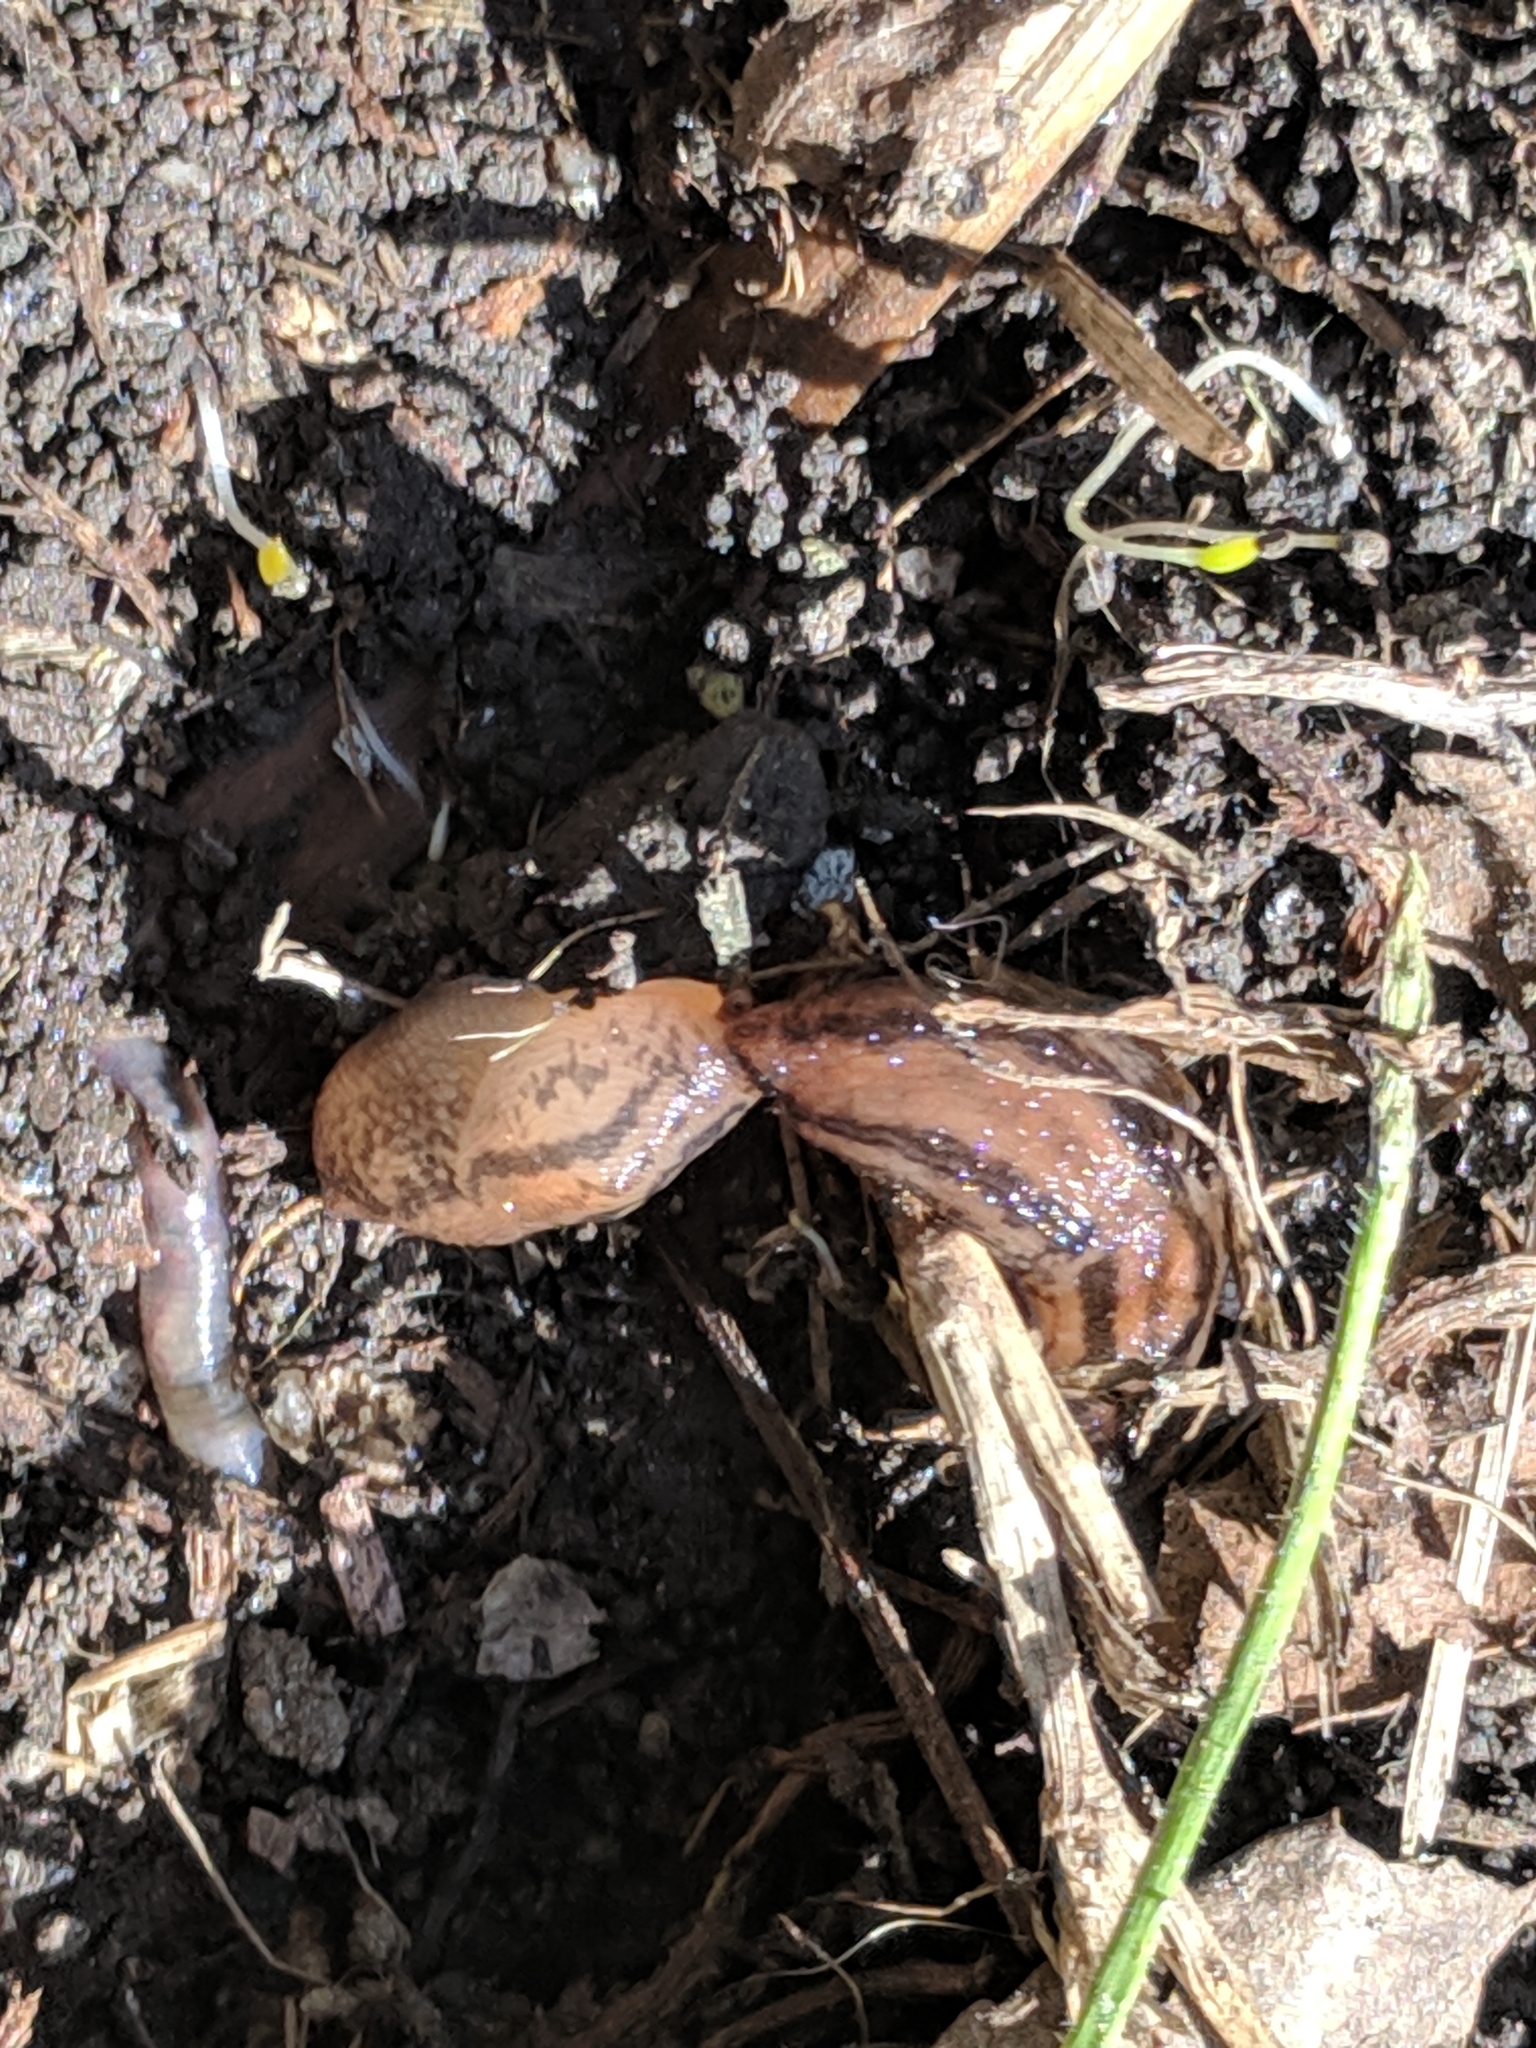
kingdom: Animalia
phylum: Mollusca
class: Gastropoda
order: Stylommatophora
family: Limacidae
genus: Ambigolimax
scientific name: Ambigolimax
